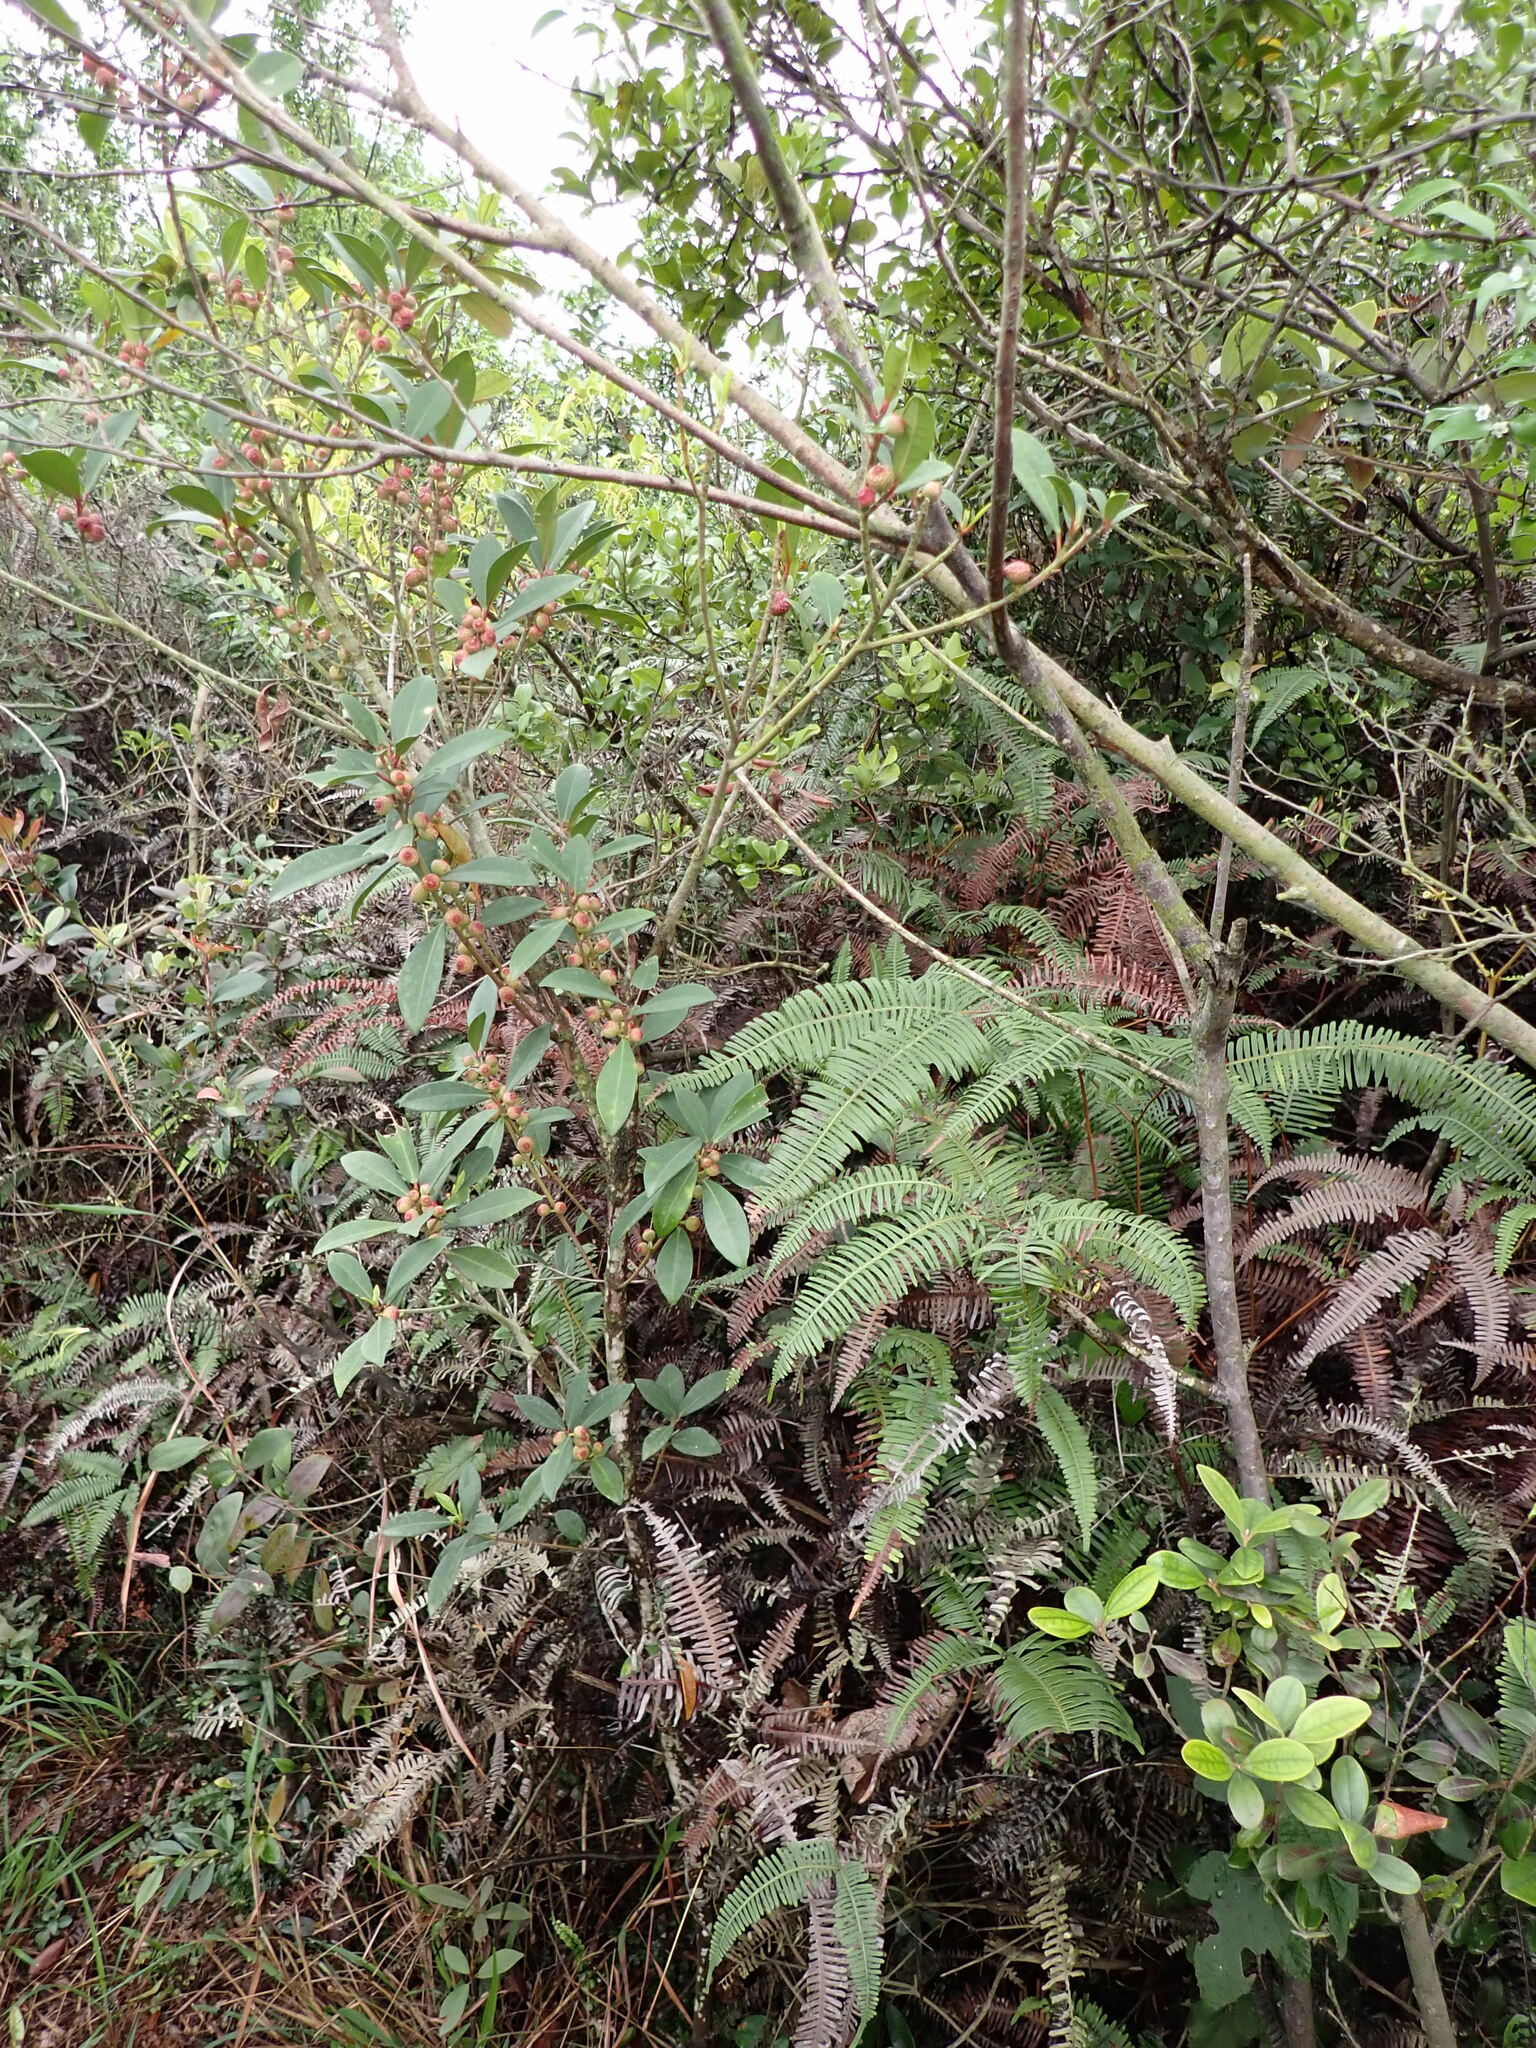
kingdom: Plantae
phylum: Tracheophyta
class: Magnoliopsida
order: Rosales
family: Moraceae
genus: Ficus
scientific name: Ficus variolosa
